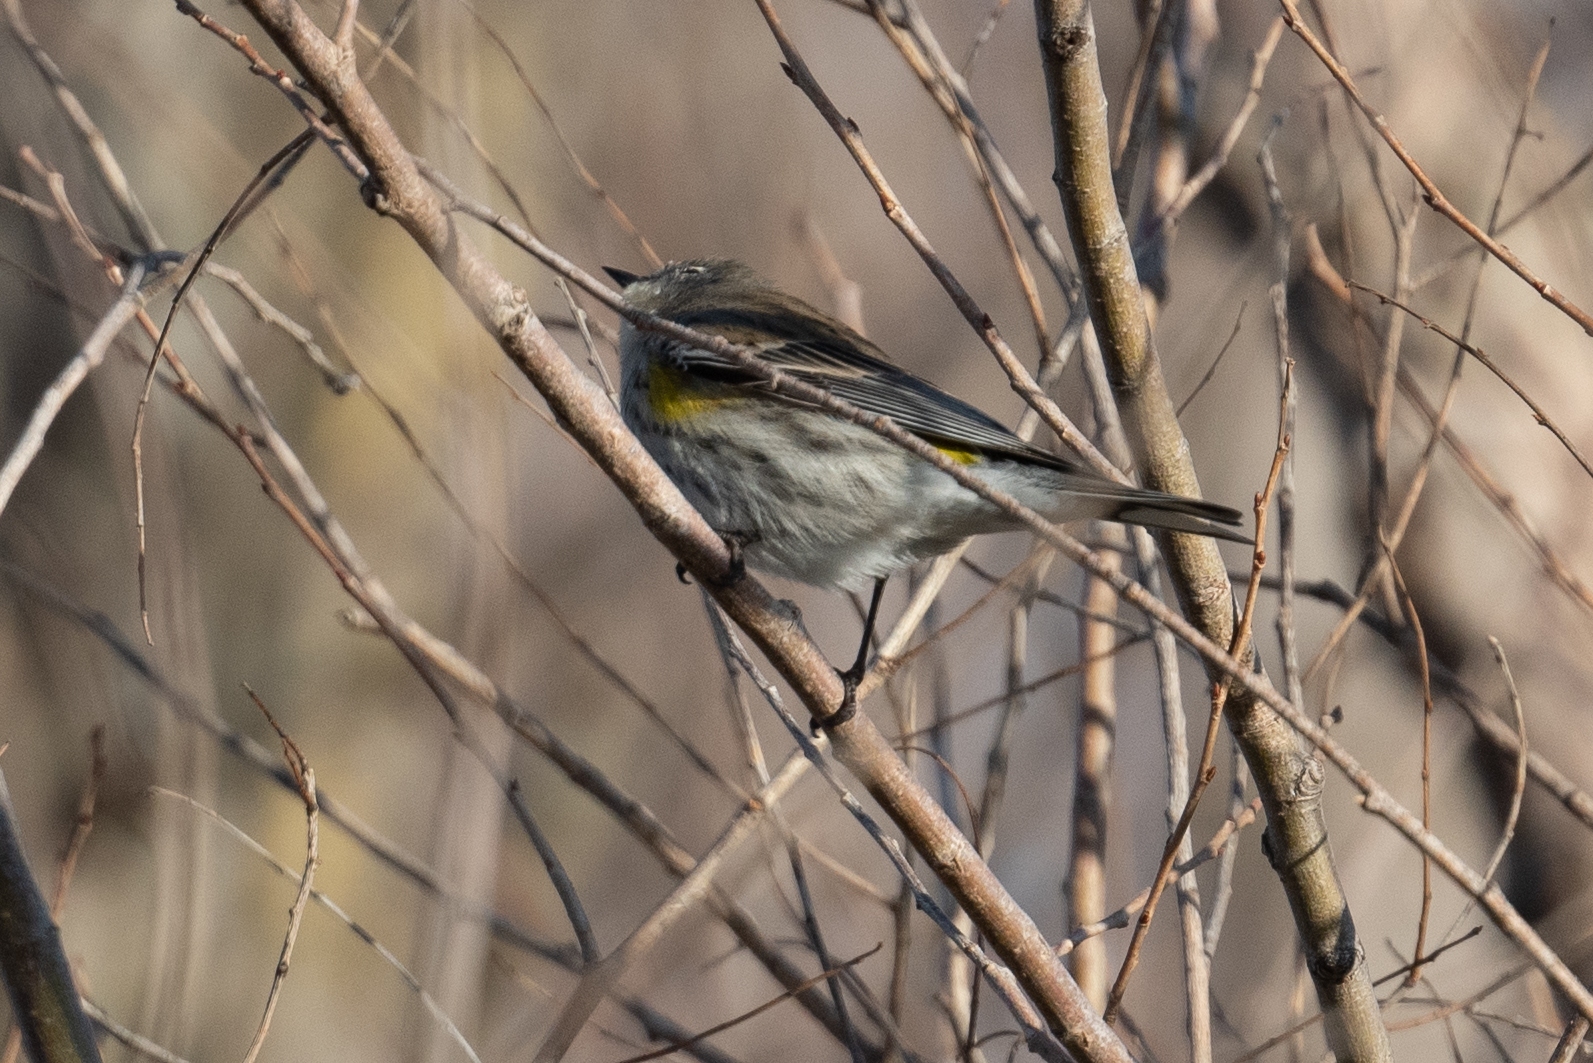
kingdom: Animalia
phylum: Chordata
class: Aves
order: Passeriformes
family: Parulidae
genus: Setophaga
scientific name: Setophaga coronata
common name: Myrtle warbler
